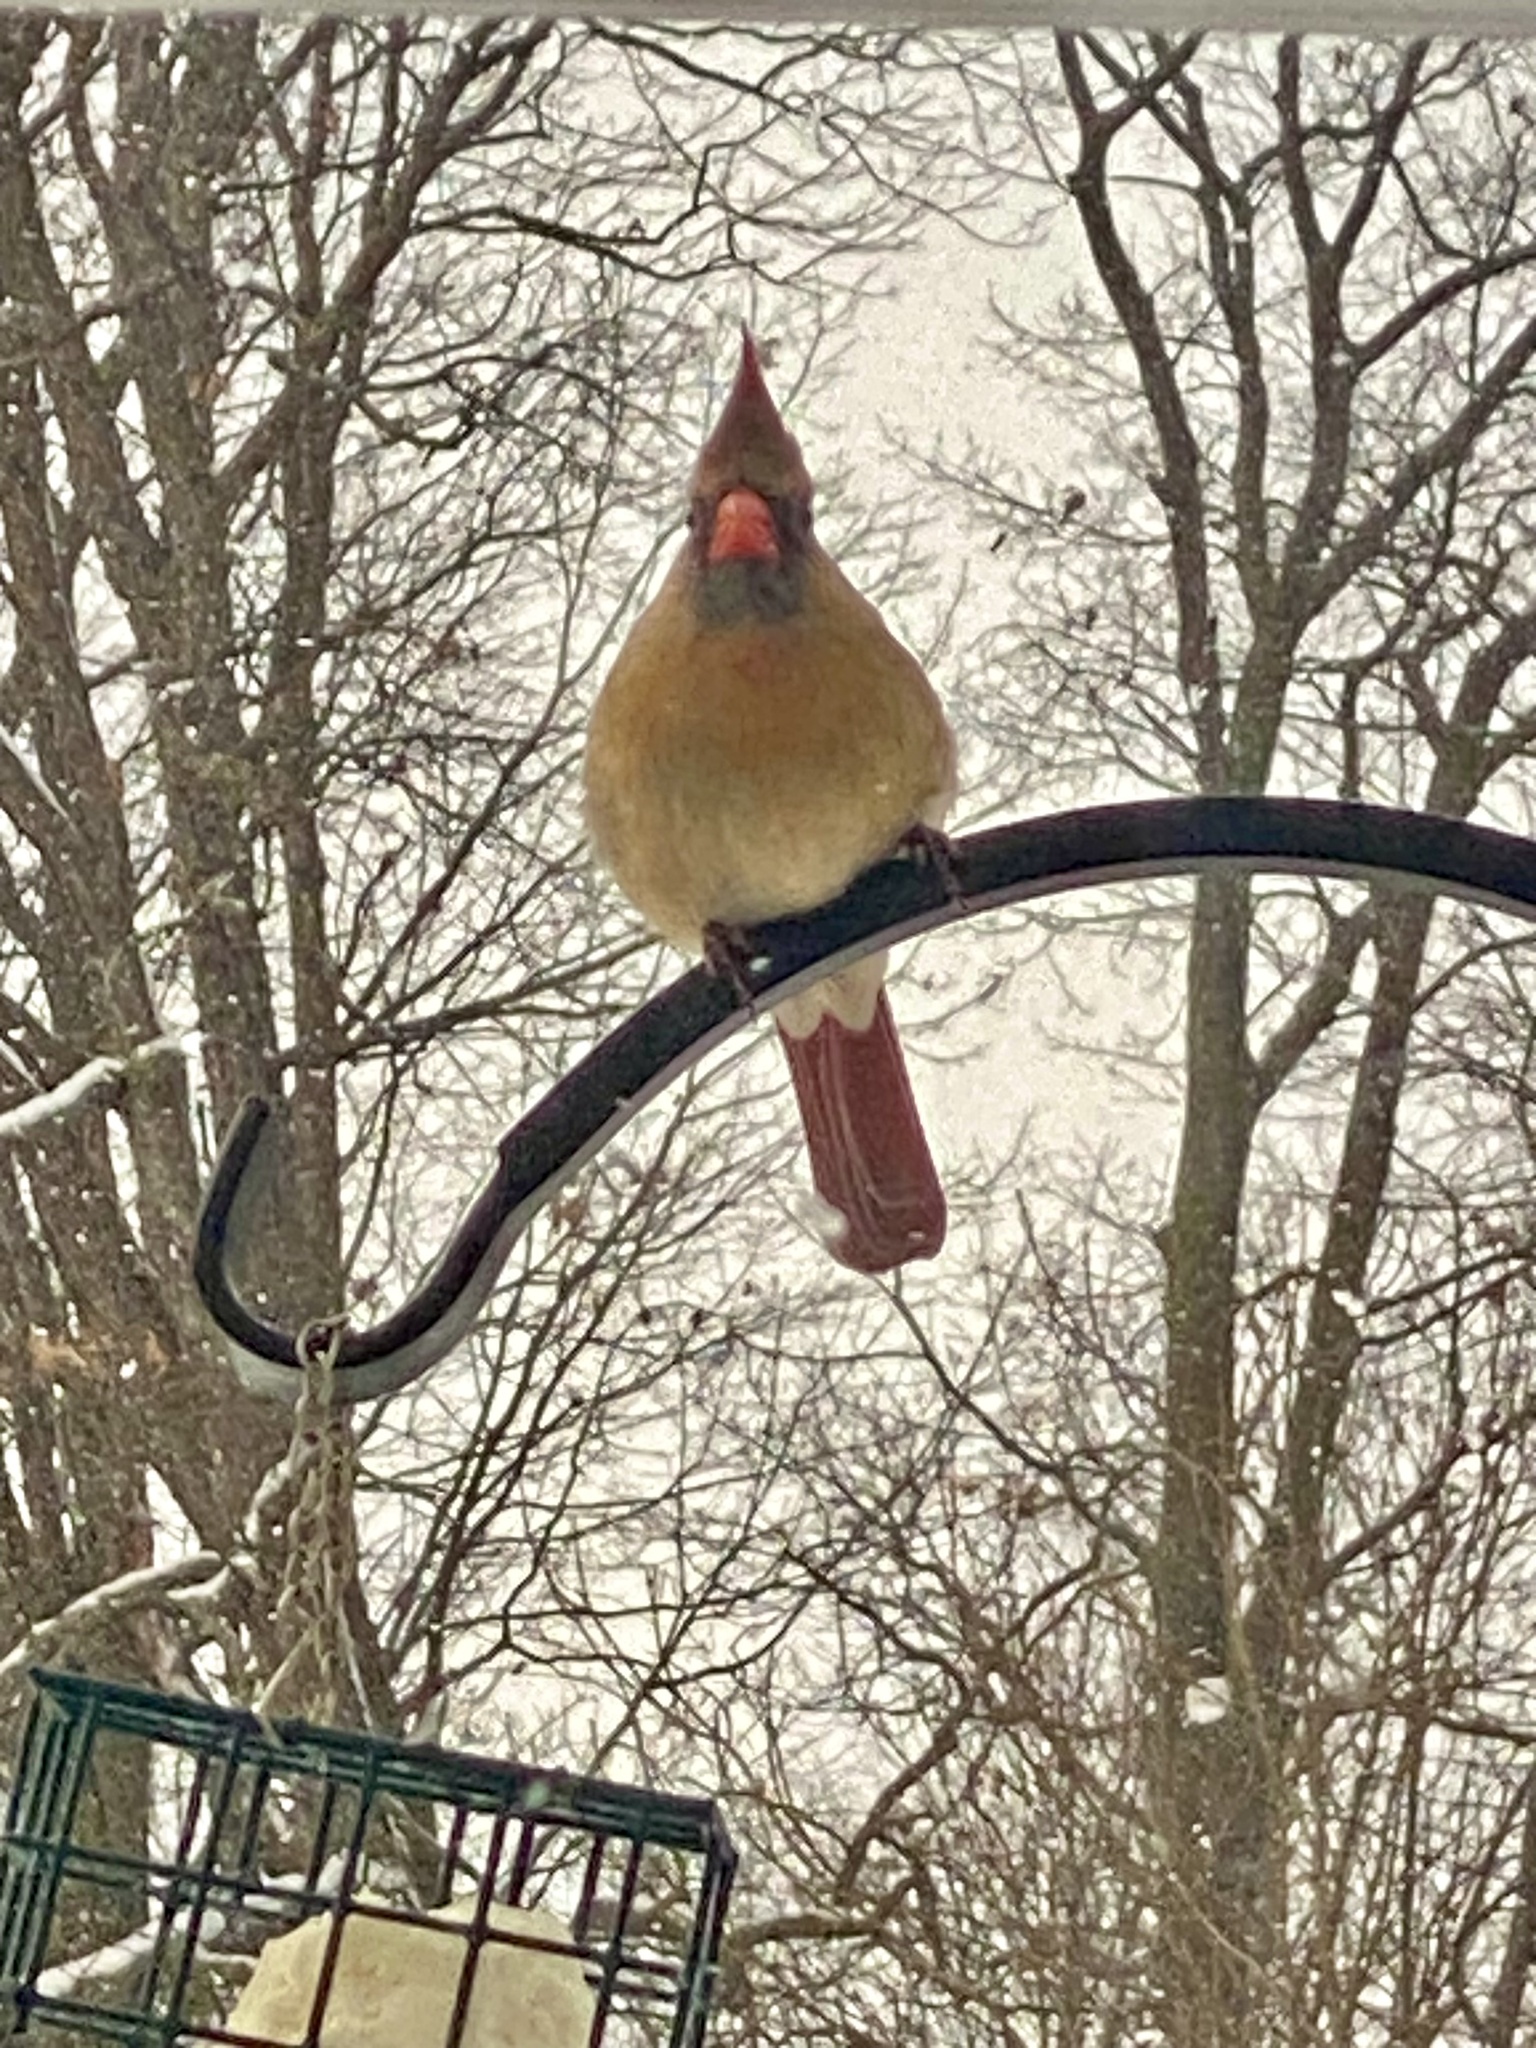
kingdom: Animalia
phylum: Chordata
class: Aves
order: Passeriformes
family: Cardinalidae
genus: Cardinalis
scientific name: Cardinalis cardinalis
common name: Northern cardinal
